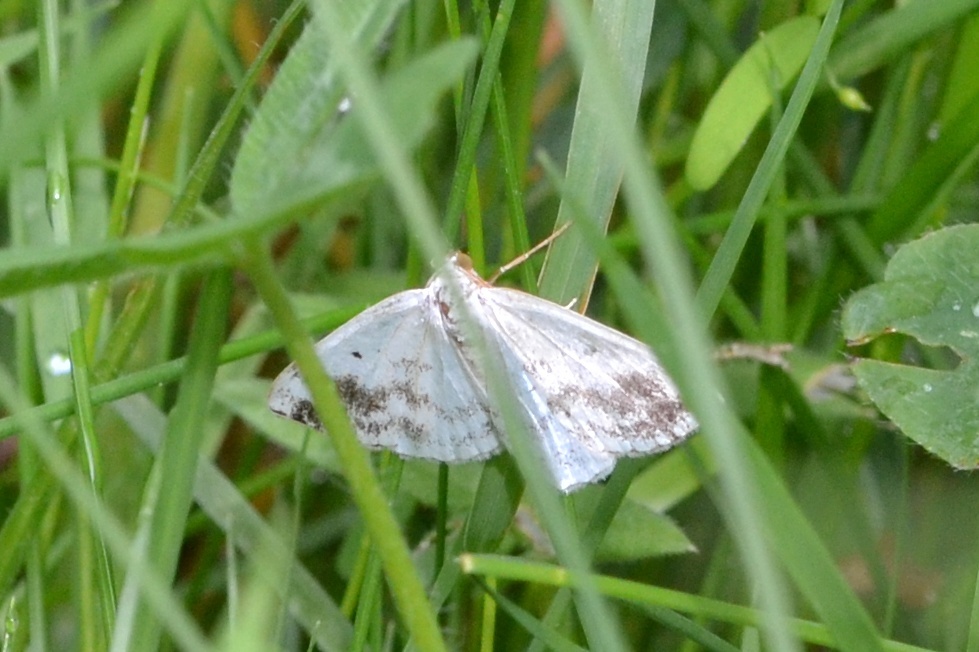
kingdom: Animalia
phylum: Arthropoda
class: Insecta
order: Lepidoptera
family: Geometridae
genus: Lomographa
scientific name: Lomographa temerata
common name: Clouded silver
